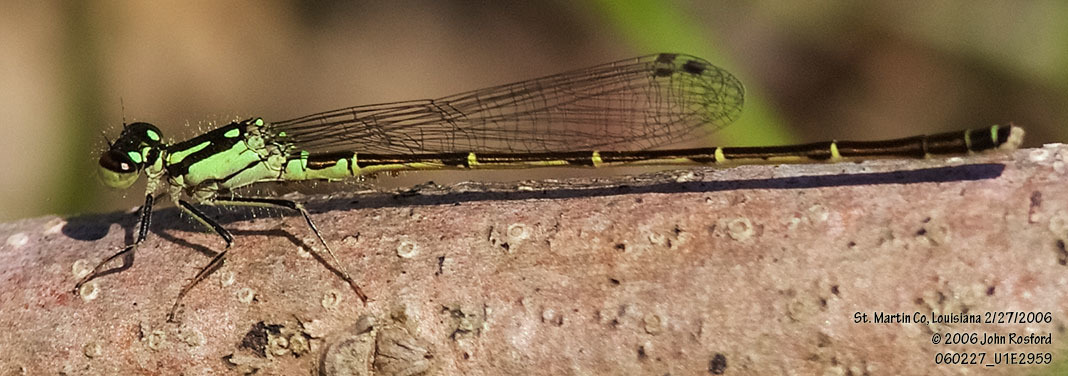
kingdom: Animalia
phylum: Arthropoda
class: Insecta
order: Odonata
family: Coenagrionidae
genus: Ischnura
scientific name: Ischnura posita
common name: Fragile forktail
